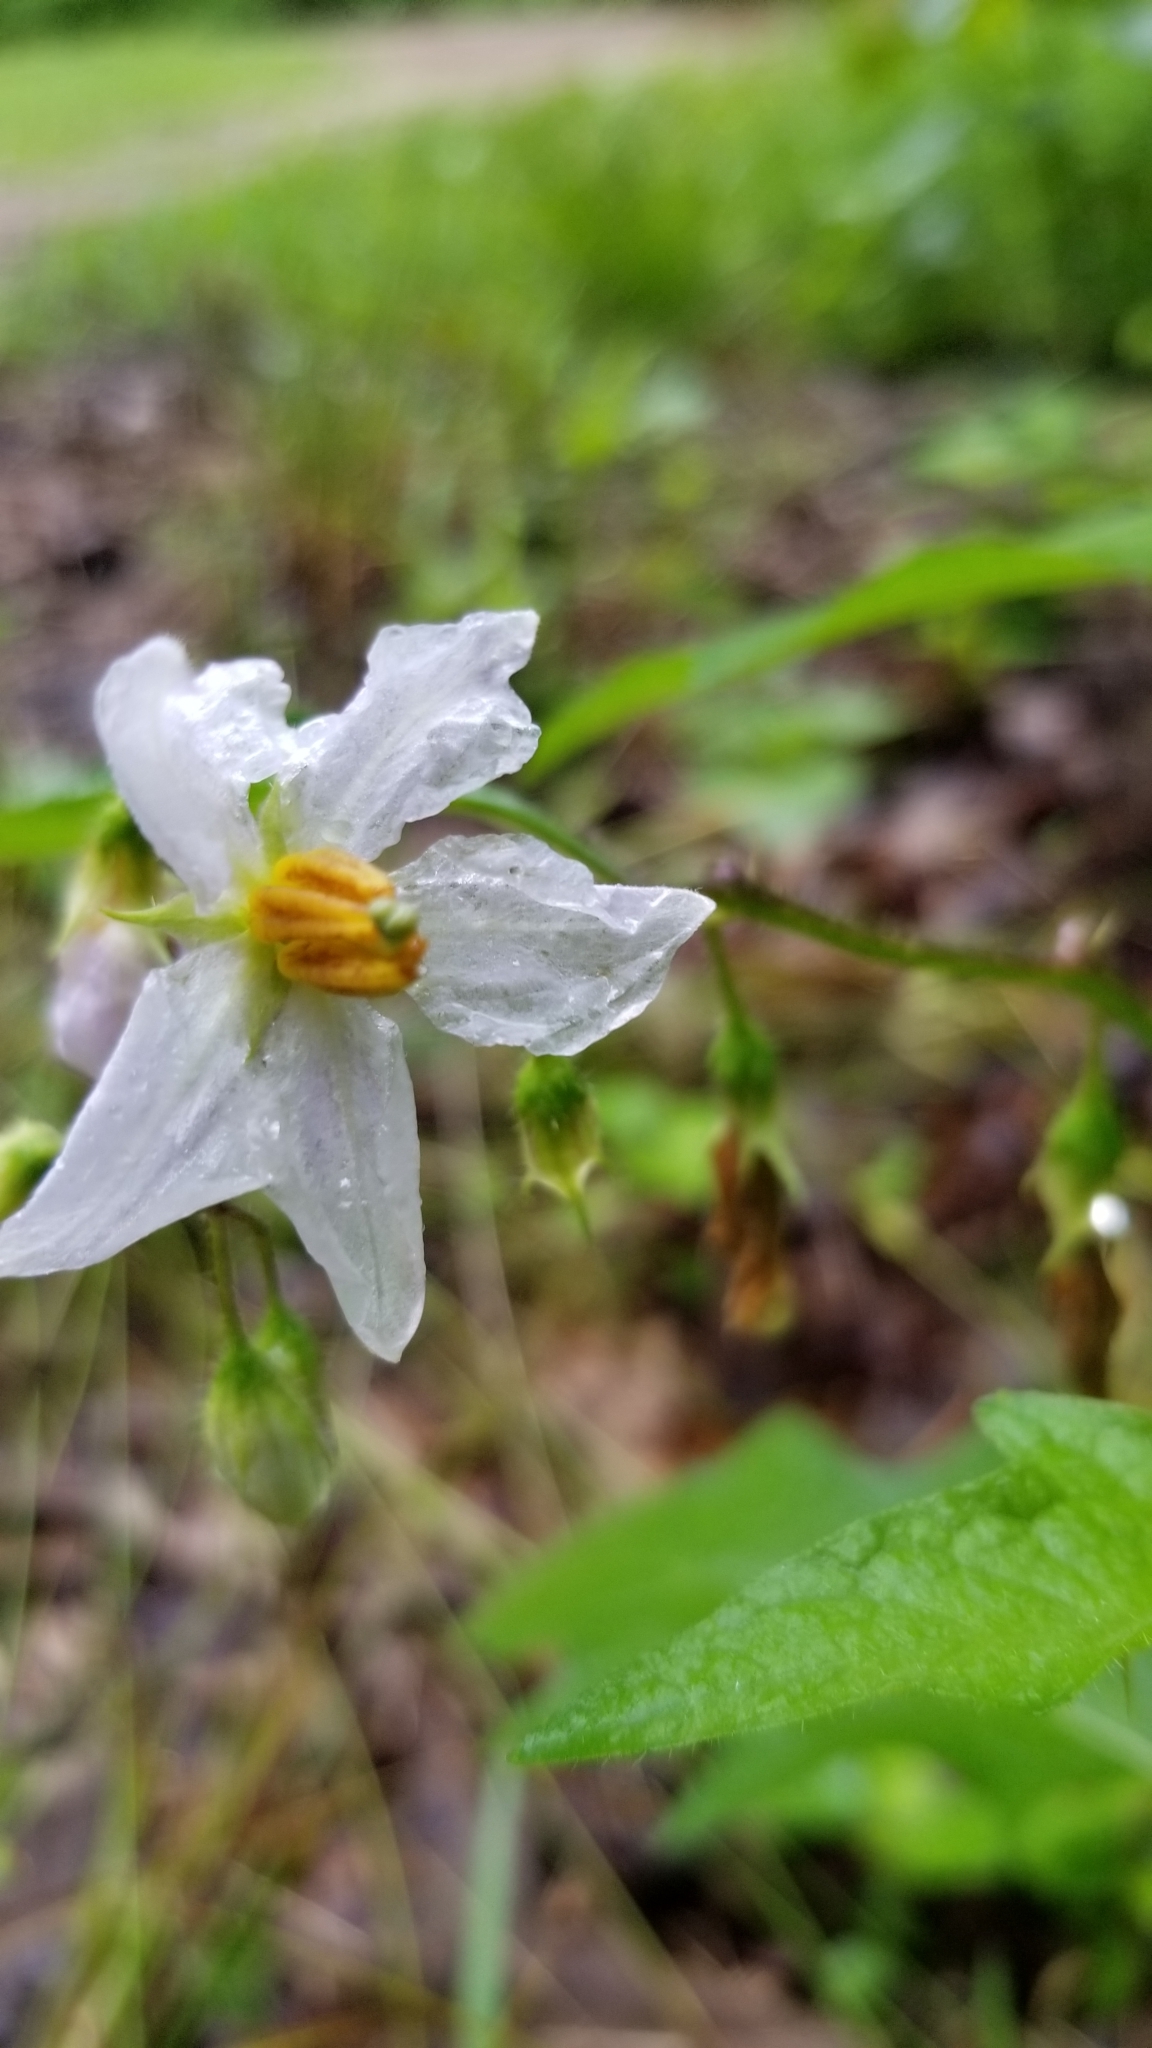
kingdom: Plantae
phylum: Tracheophyta
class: Magnoliopsida
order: Solanales
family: Solanaceae
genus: Solanum
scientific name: Solanum carolinense
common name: Horse-nettle
